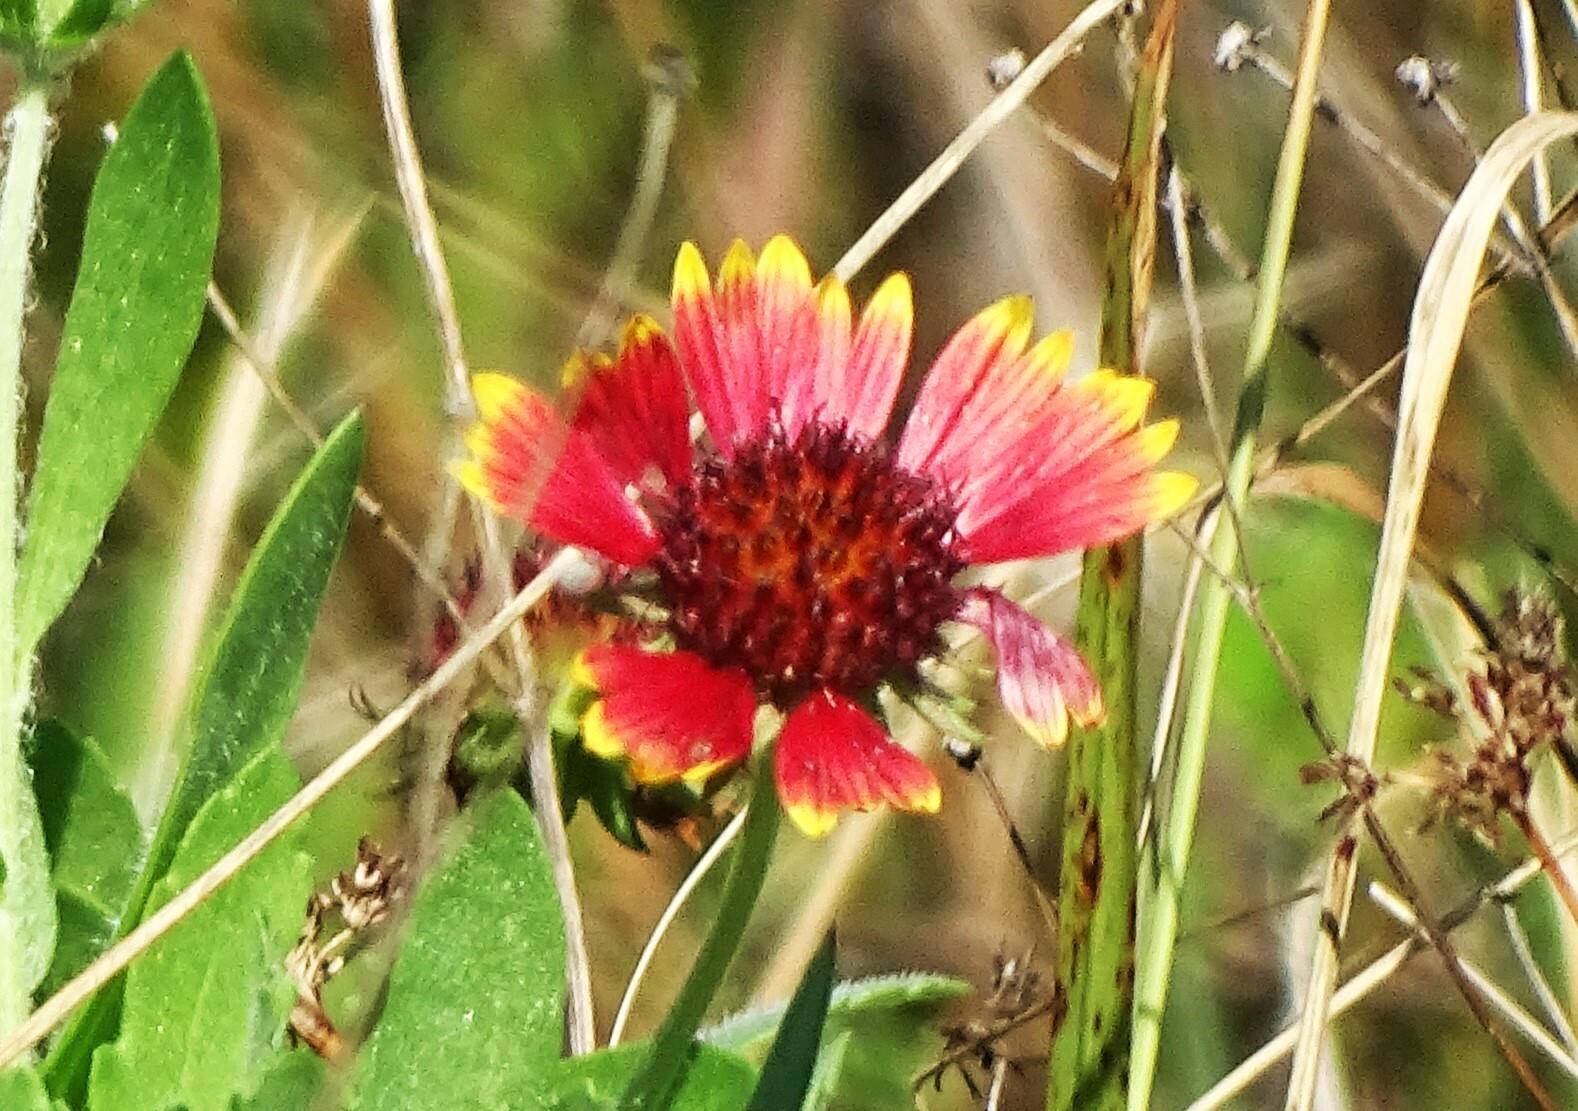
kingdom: Plantae
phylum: Tracheophyta
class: Magnoliopsida
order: Asterales
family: Asteraceae
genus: Gaillardia
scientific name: Gaillardia pulchella
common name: Firewheel
